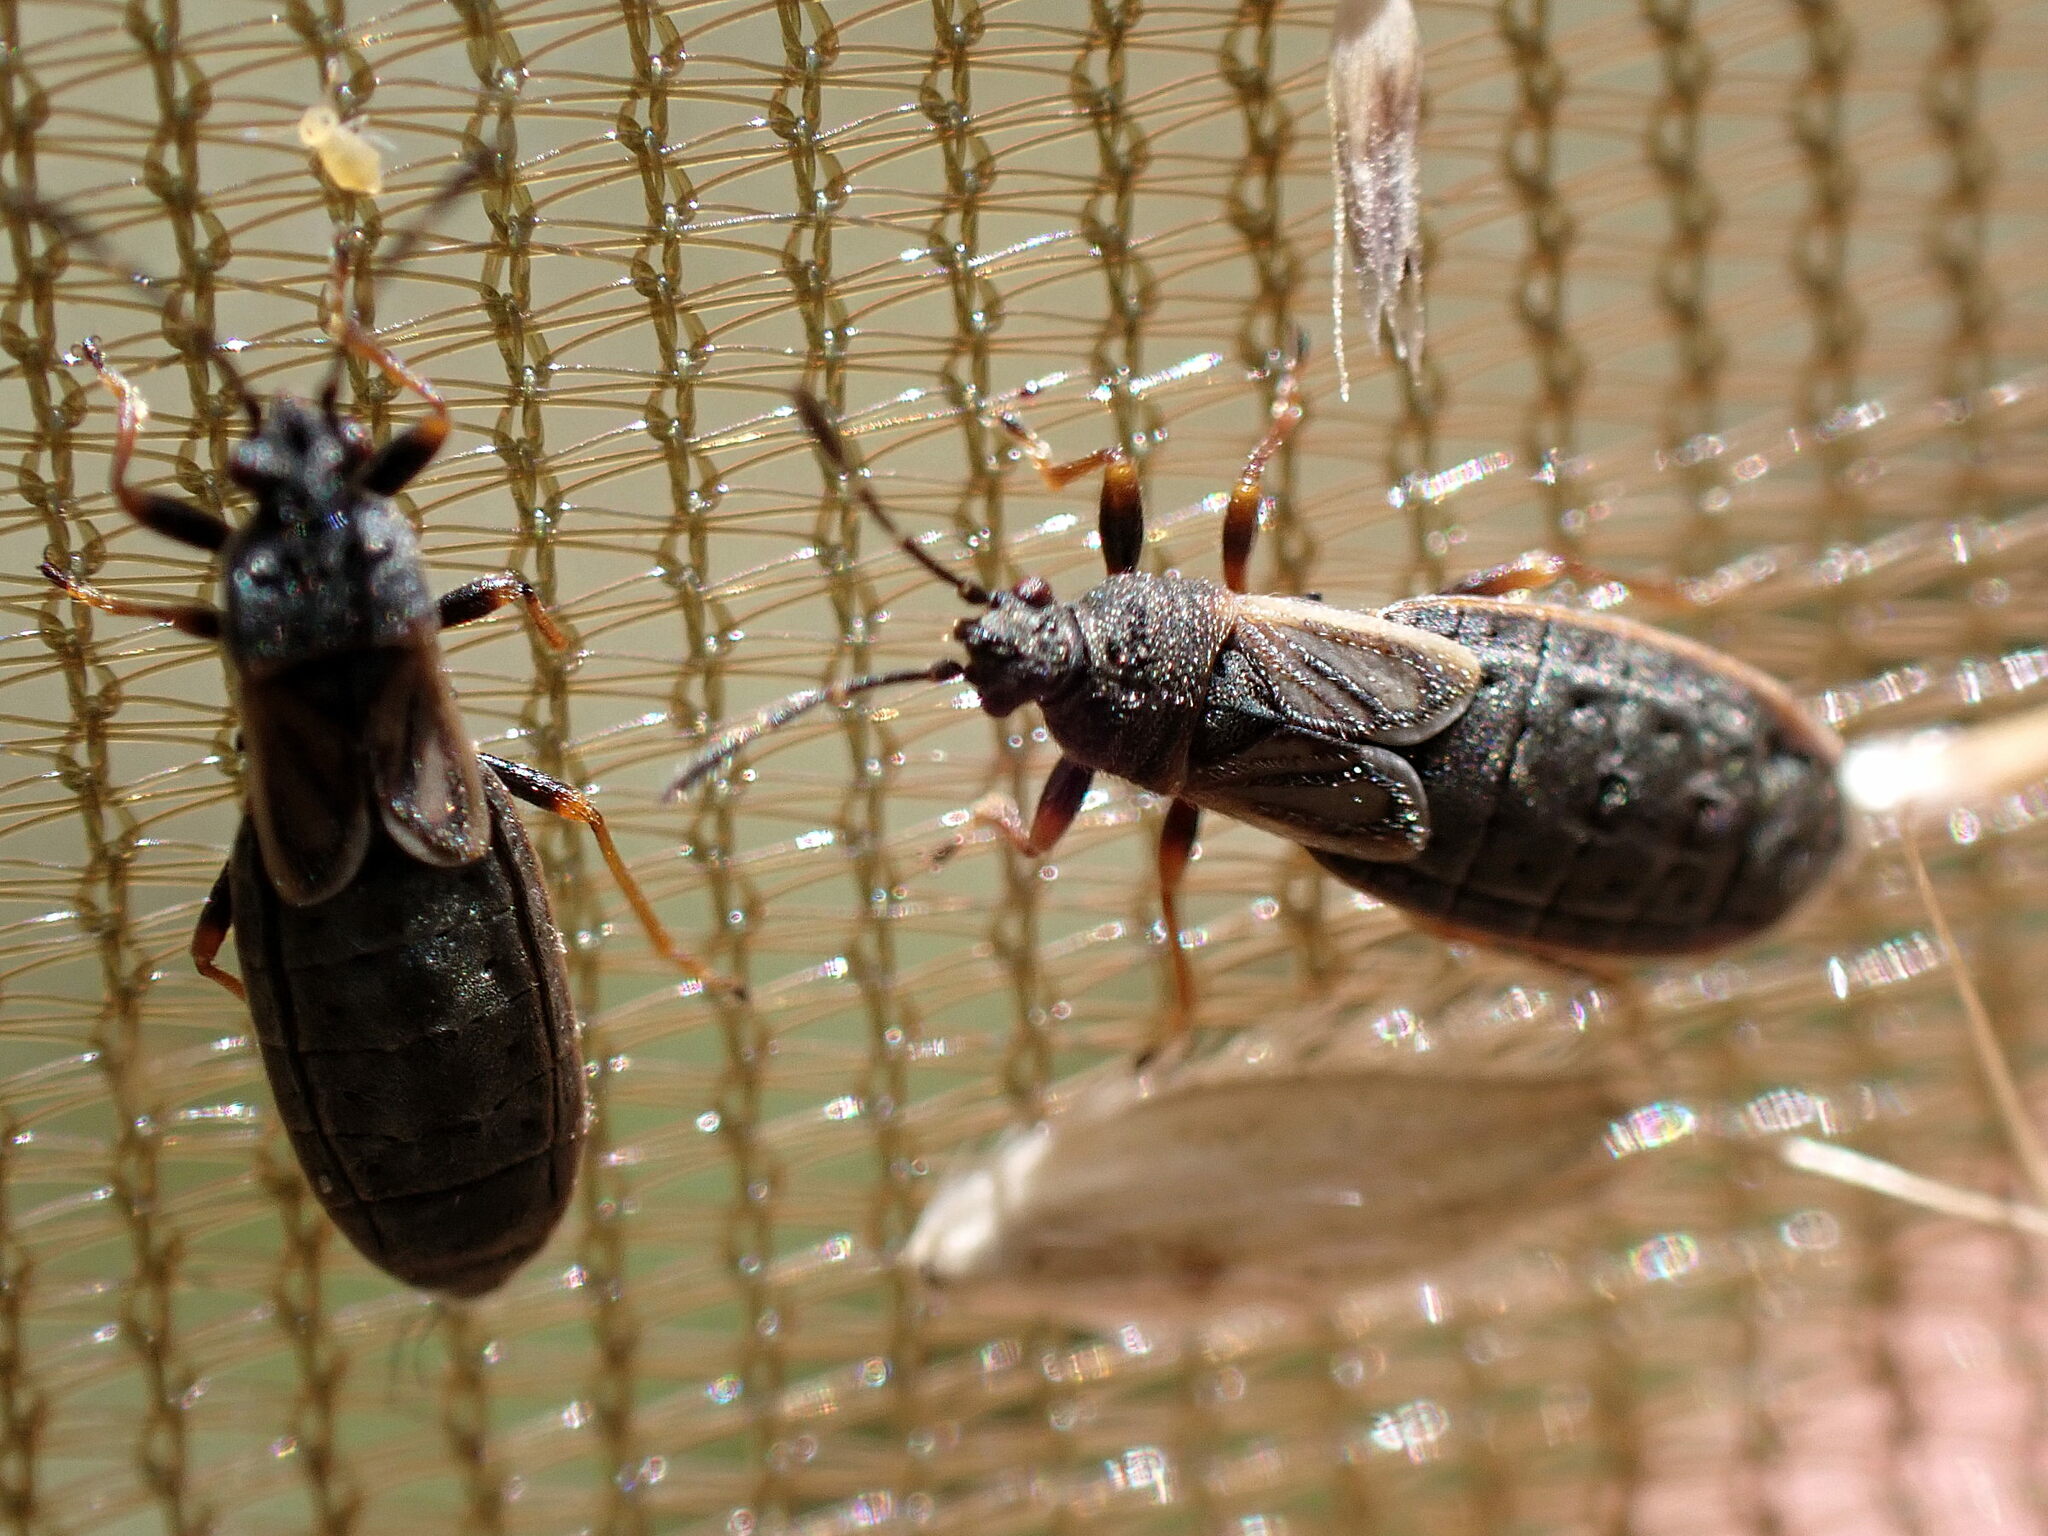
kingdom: Animalia
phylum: Arthropoda
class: Insecta
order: Hemiptera
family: Blissidae
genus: Ischnodemus
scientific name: Ischnodemus sabuleti
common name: European cinchbug
